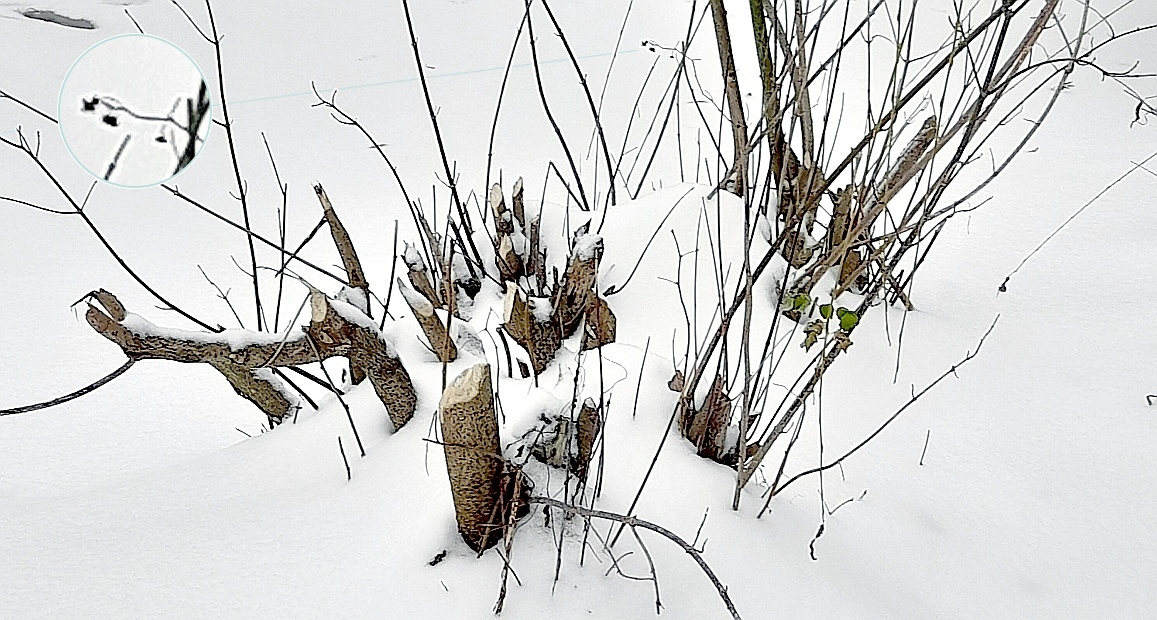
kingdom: Plantae
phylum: Tracheophyta
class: Magnoliopsida
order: Fagales
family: Betulaceae
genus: Alnus
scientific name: Alnus incana
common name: Grey alder
